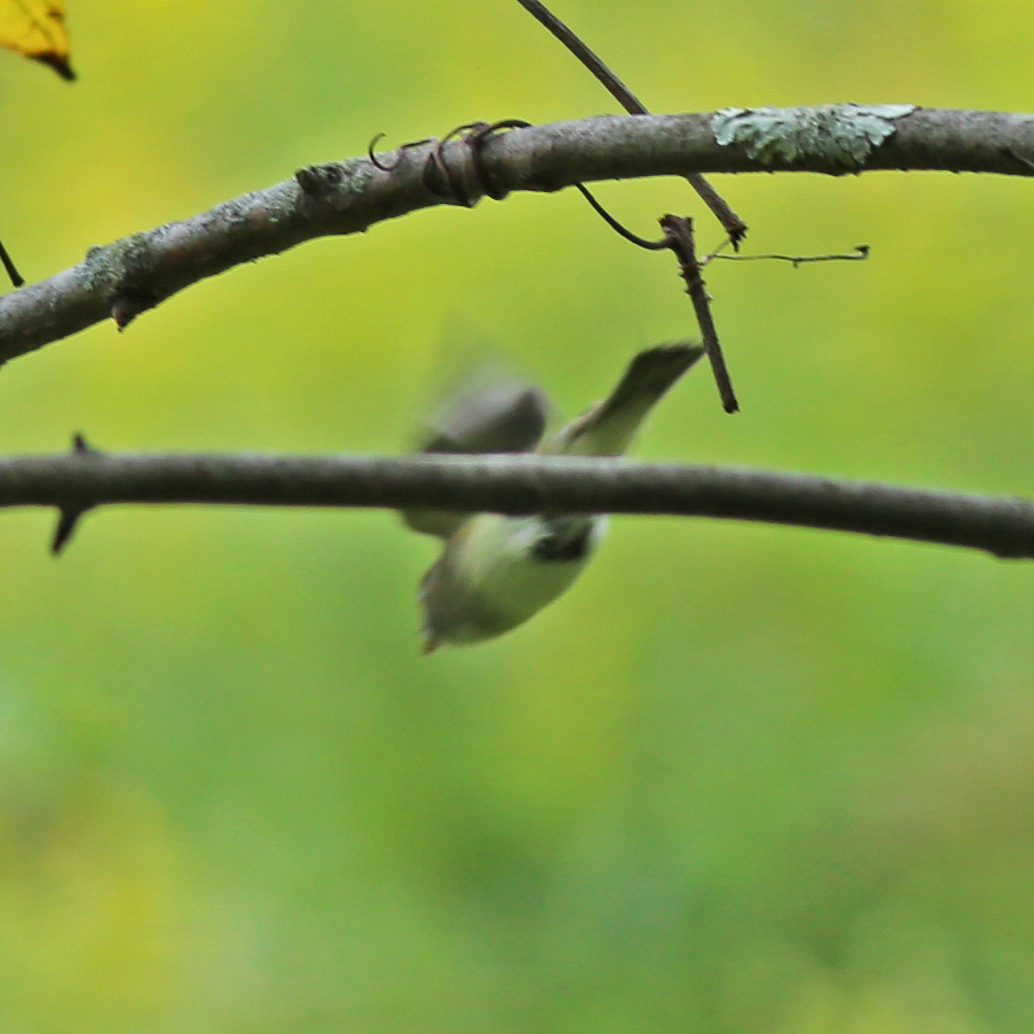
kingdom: Animalia
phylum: Chordata
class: Aves
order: Passeriformes
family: Tyrannidae
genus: Empidonax
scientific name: Empidonax
